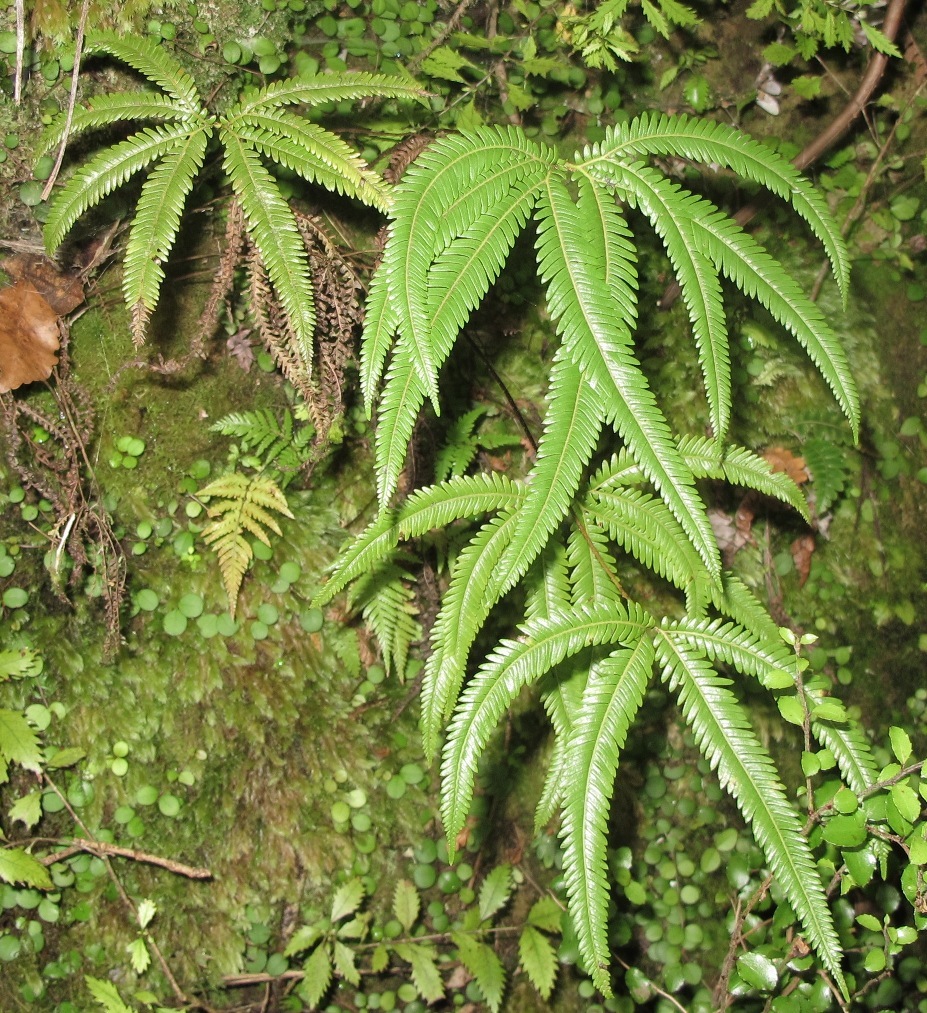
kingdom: Plantae
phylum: Tracheophyta
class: Polypodiopsida
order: Gleicheniales
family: Gleicheniaceae
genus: Sticherus
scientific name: Sticherus cunninghamii
